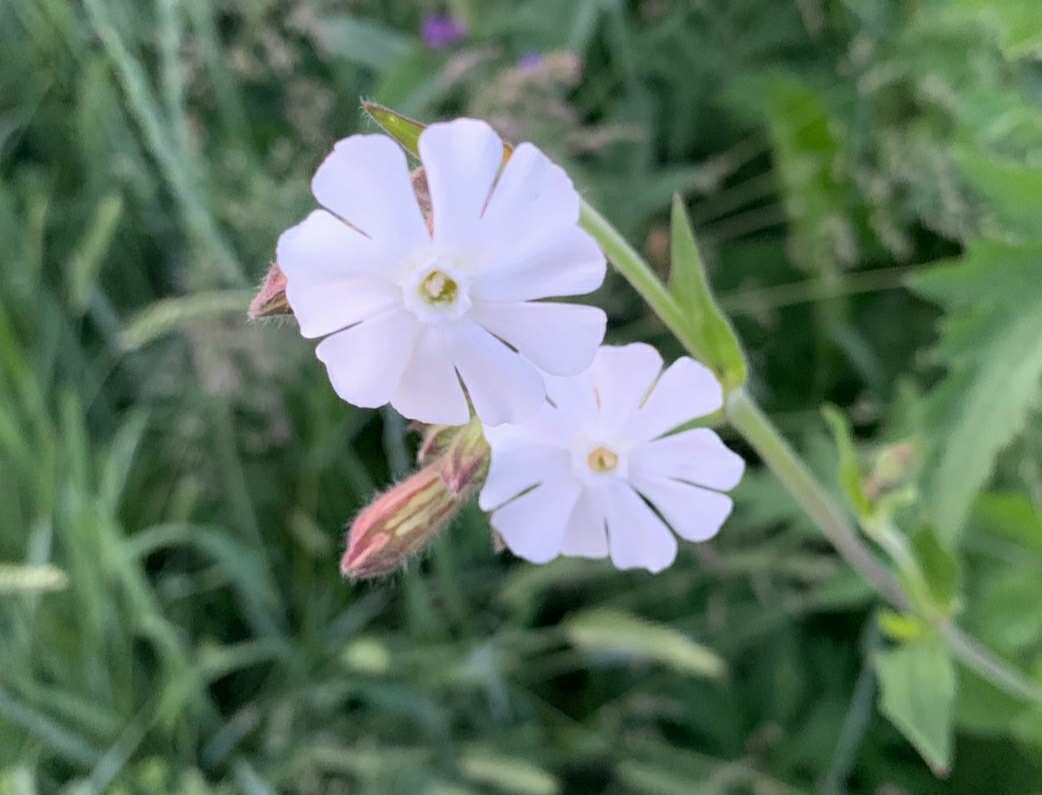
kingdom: Plantae
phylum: Tracheophyta
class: Magnoliopsida
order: Caryophyllales
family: Caryophyllaceae
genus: Silene
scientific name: Silene latifolia
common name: White campion
